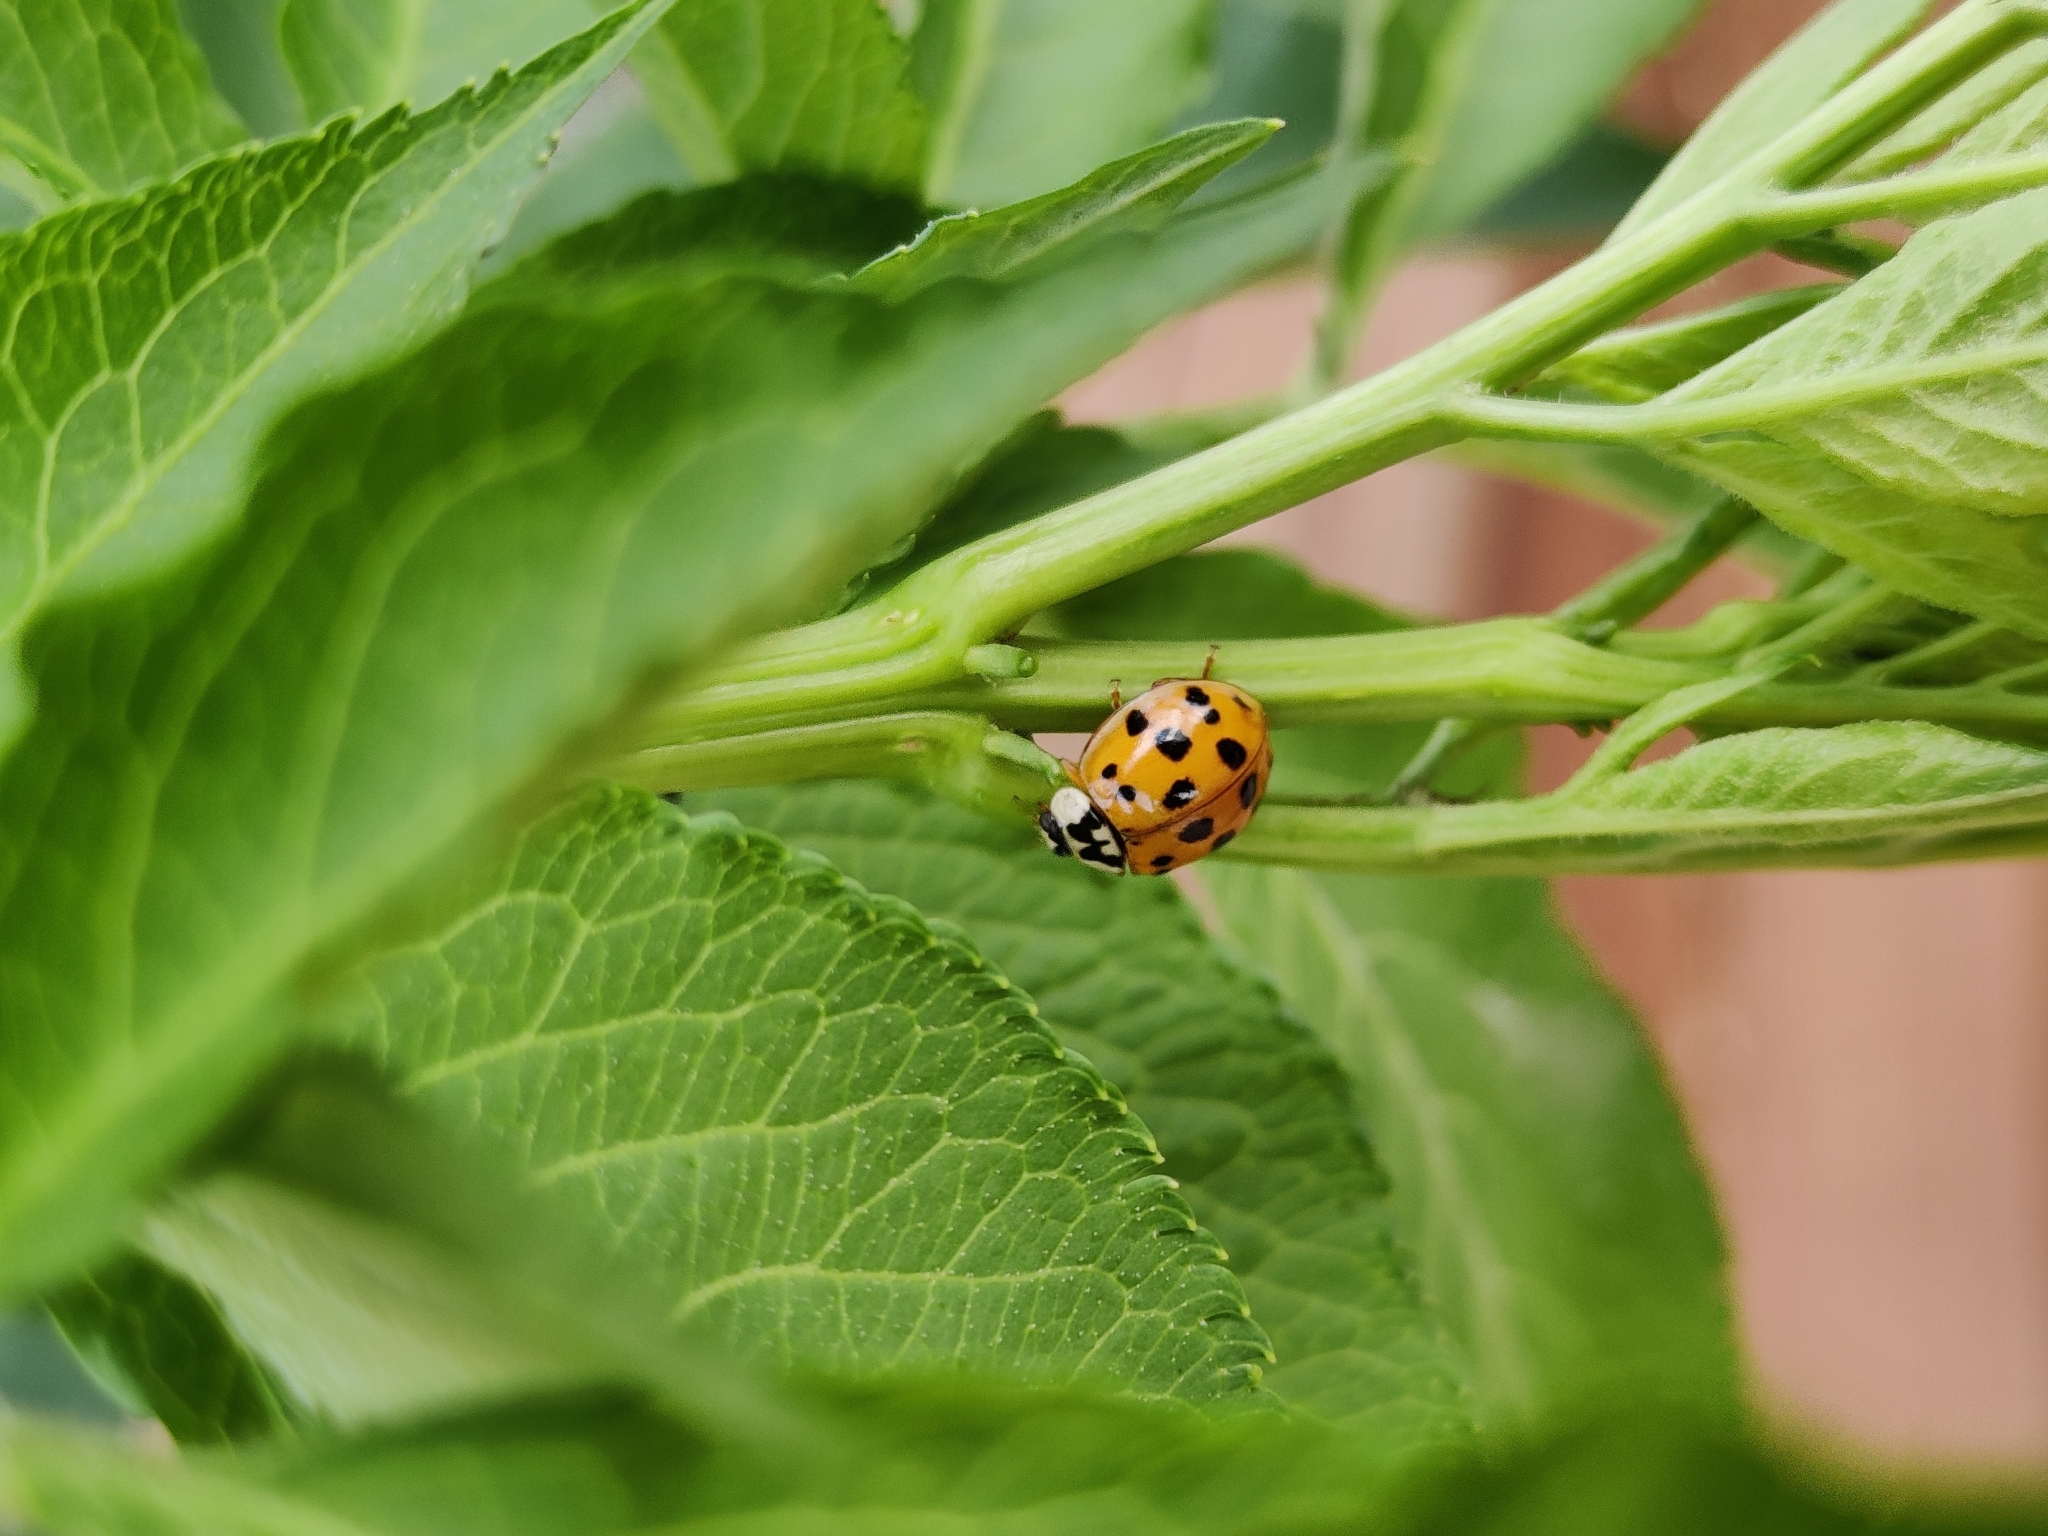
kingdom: Animalia
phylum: Arthropoda
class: Insecta
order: Coleoptera
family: Coccinellidae
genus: Harmonia
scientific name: Harmonia axyridis
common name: Harlequin ladybird
